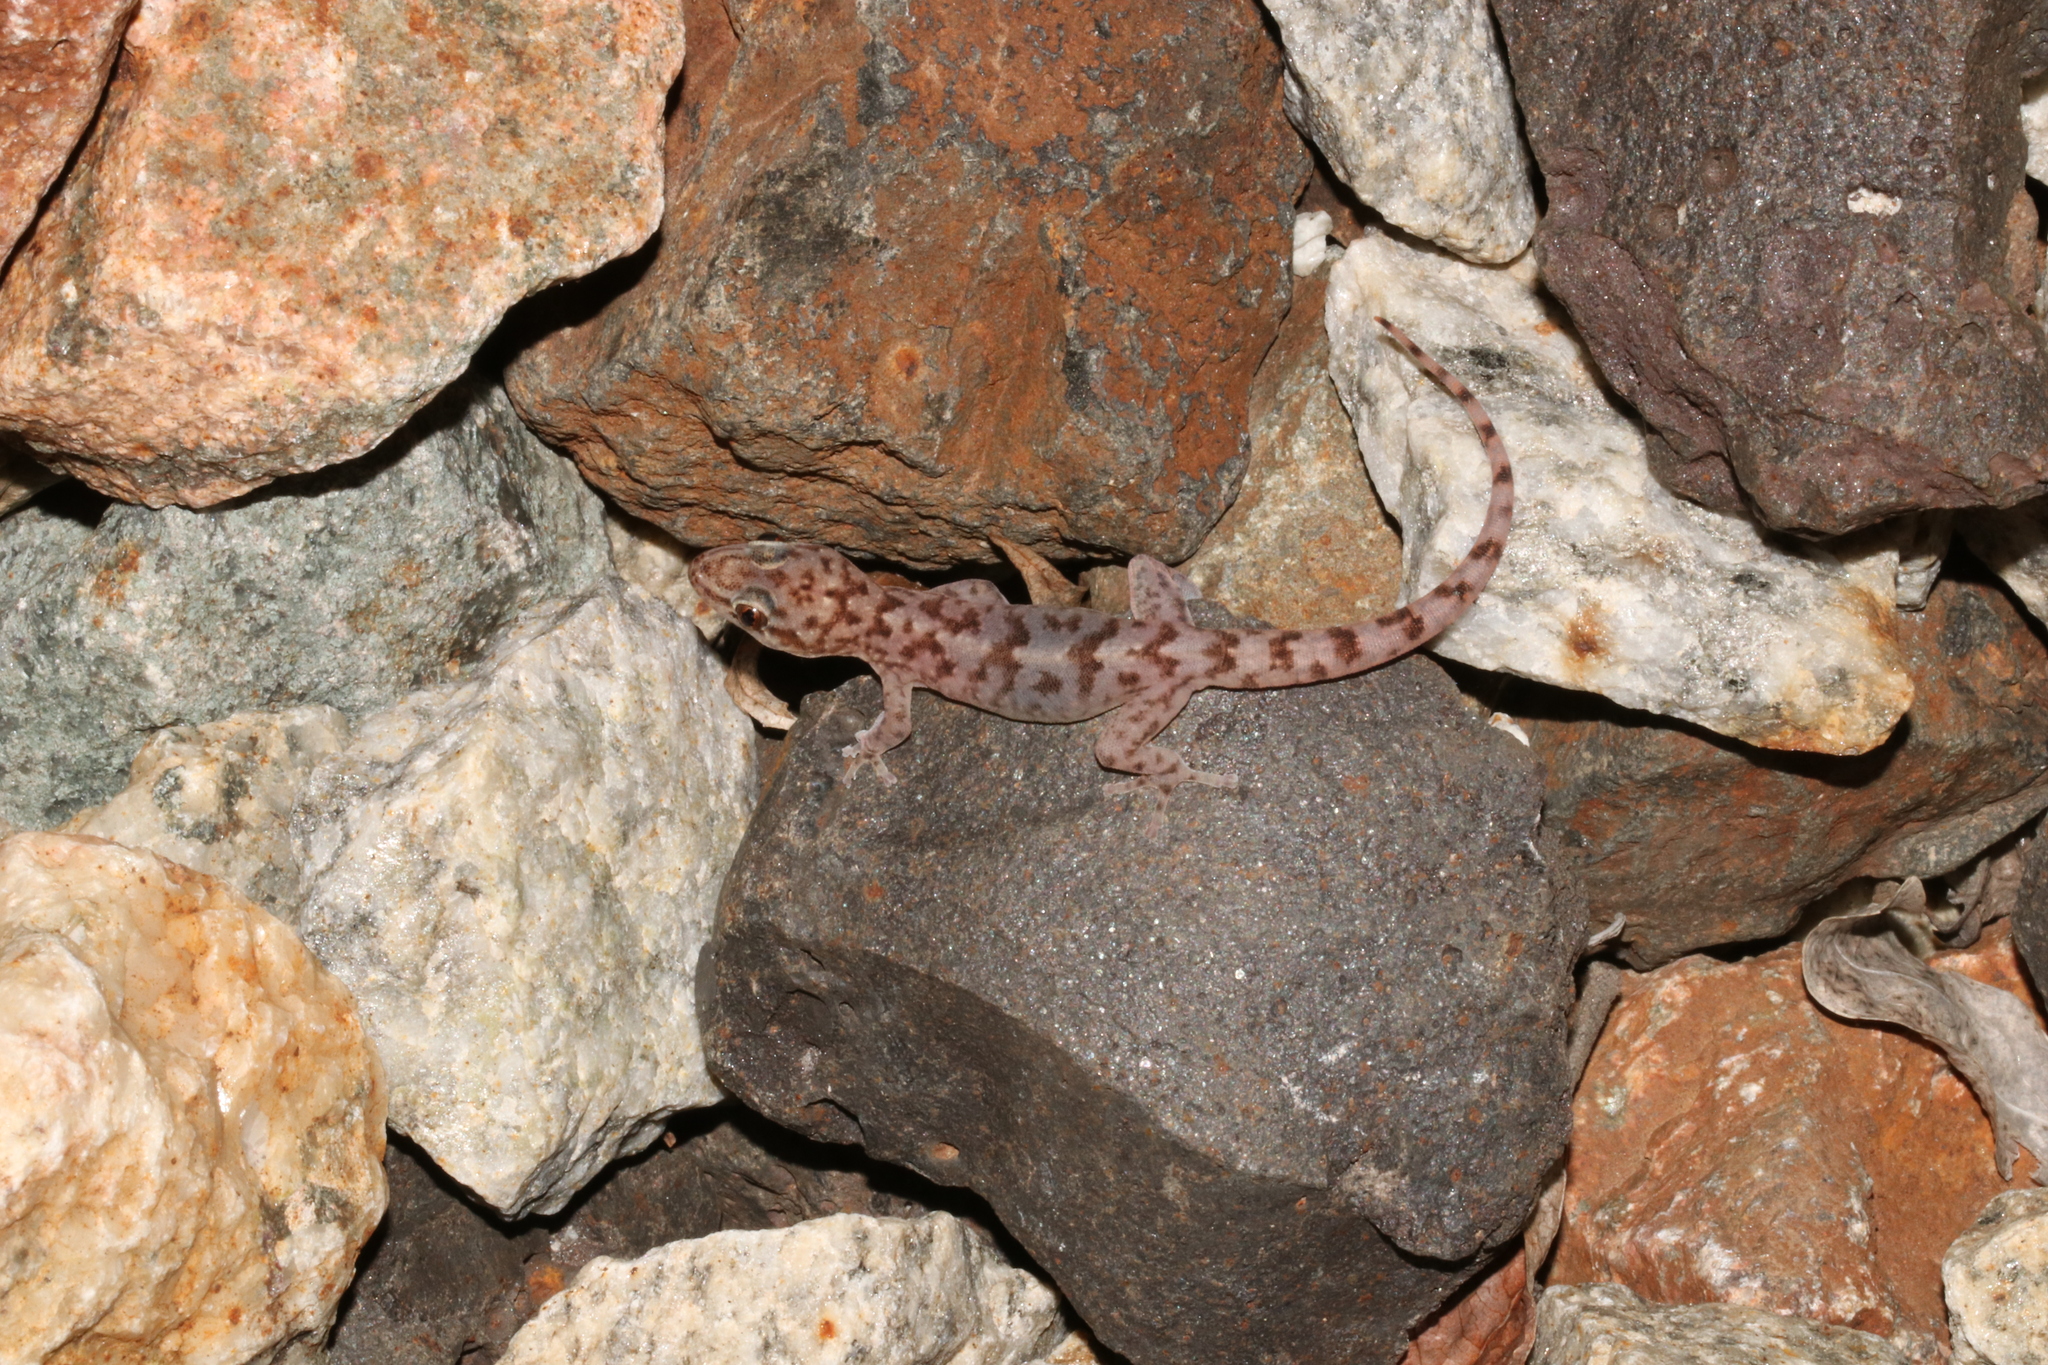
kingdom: Animalia
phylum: Chordata
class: Squamata
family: Gekkonidae
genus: Afroedura
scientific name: Afroedura pienaari
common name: Pienaar’s rock gecko
